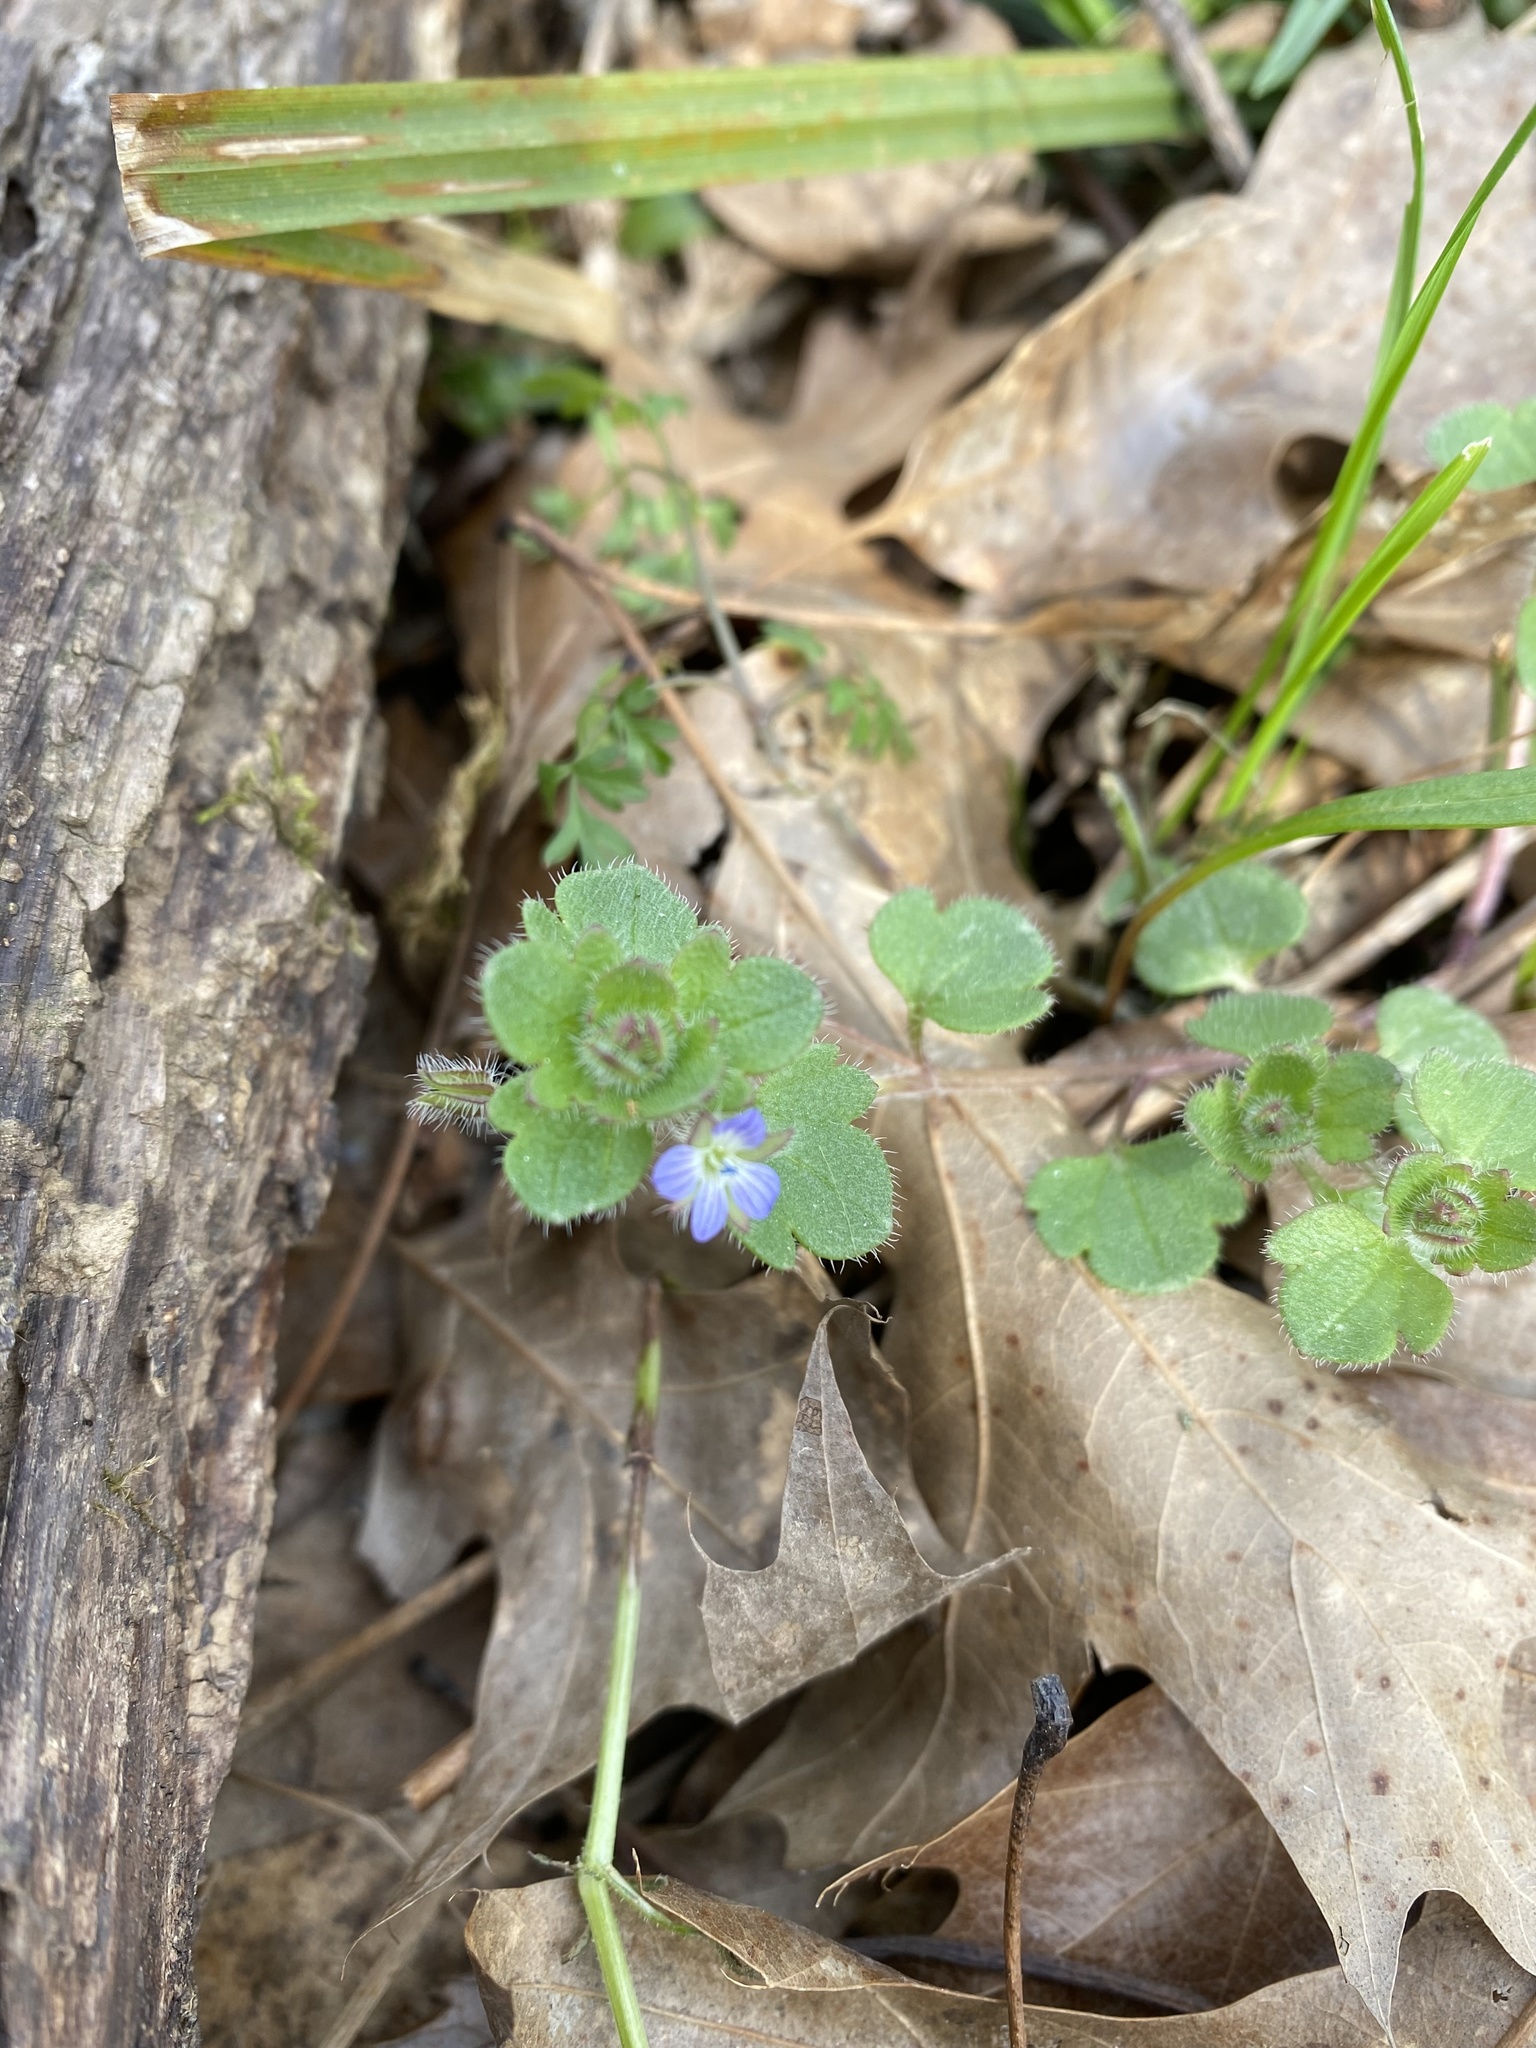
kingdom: Plantae
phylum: Tracheophyta
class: Magnoliopsida
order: Lamiales
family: Plantaginaceae
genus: Veronica
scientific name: Veronica hederifolia
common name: Ivy-leaved speedwell
